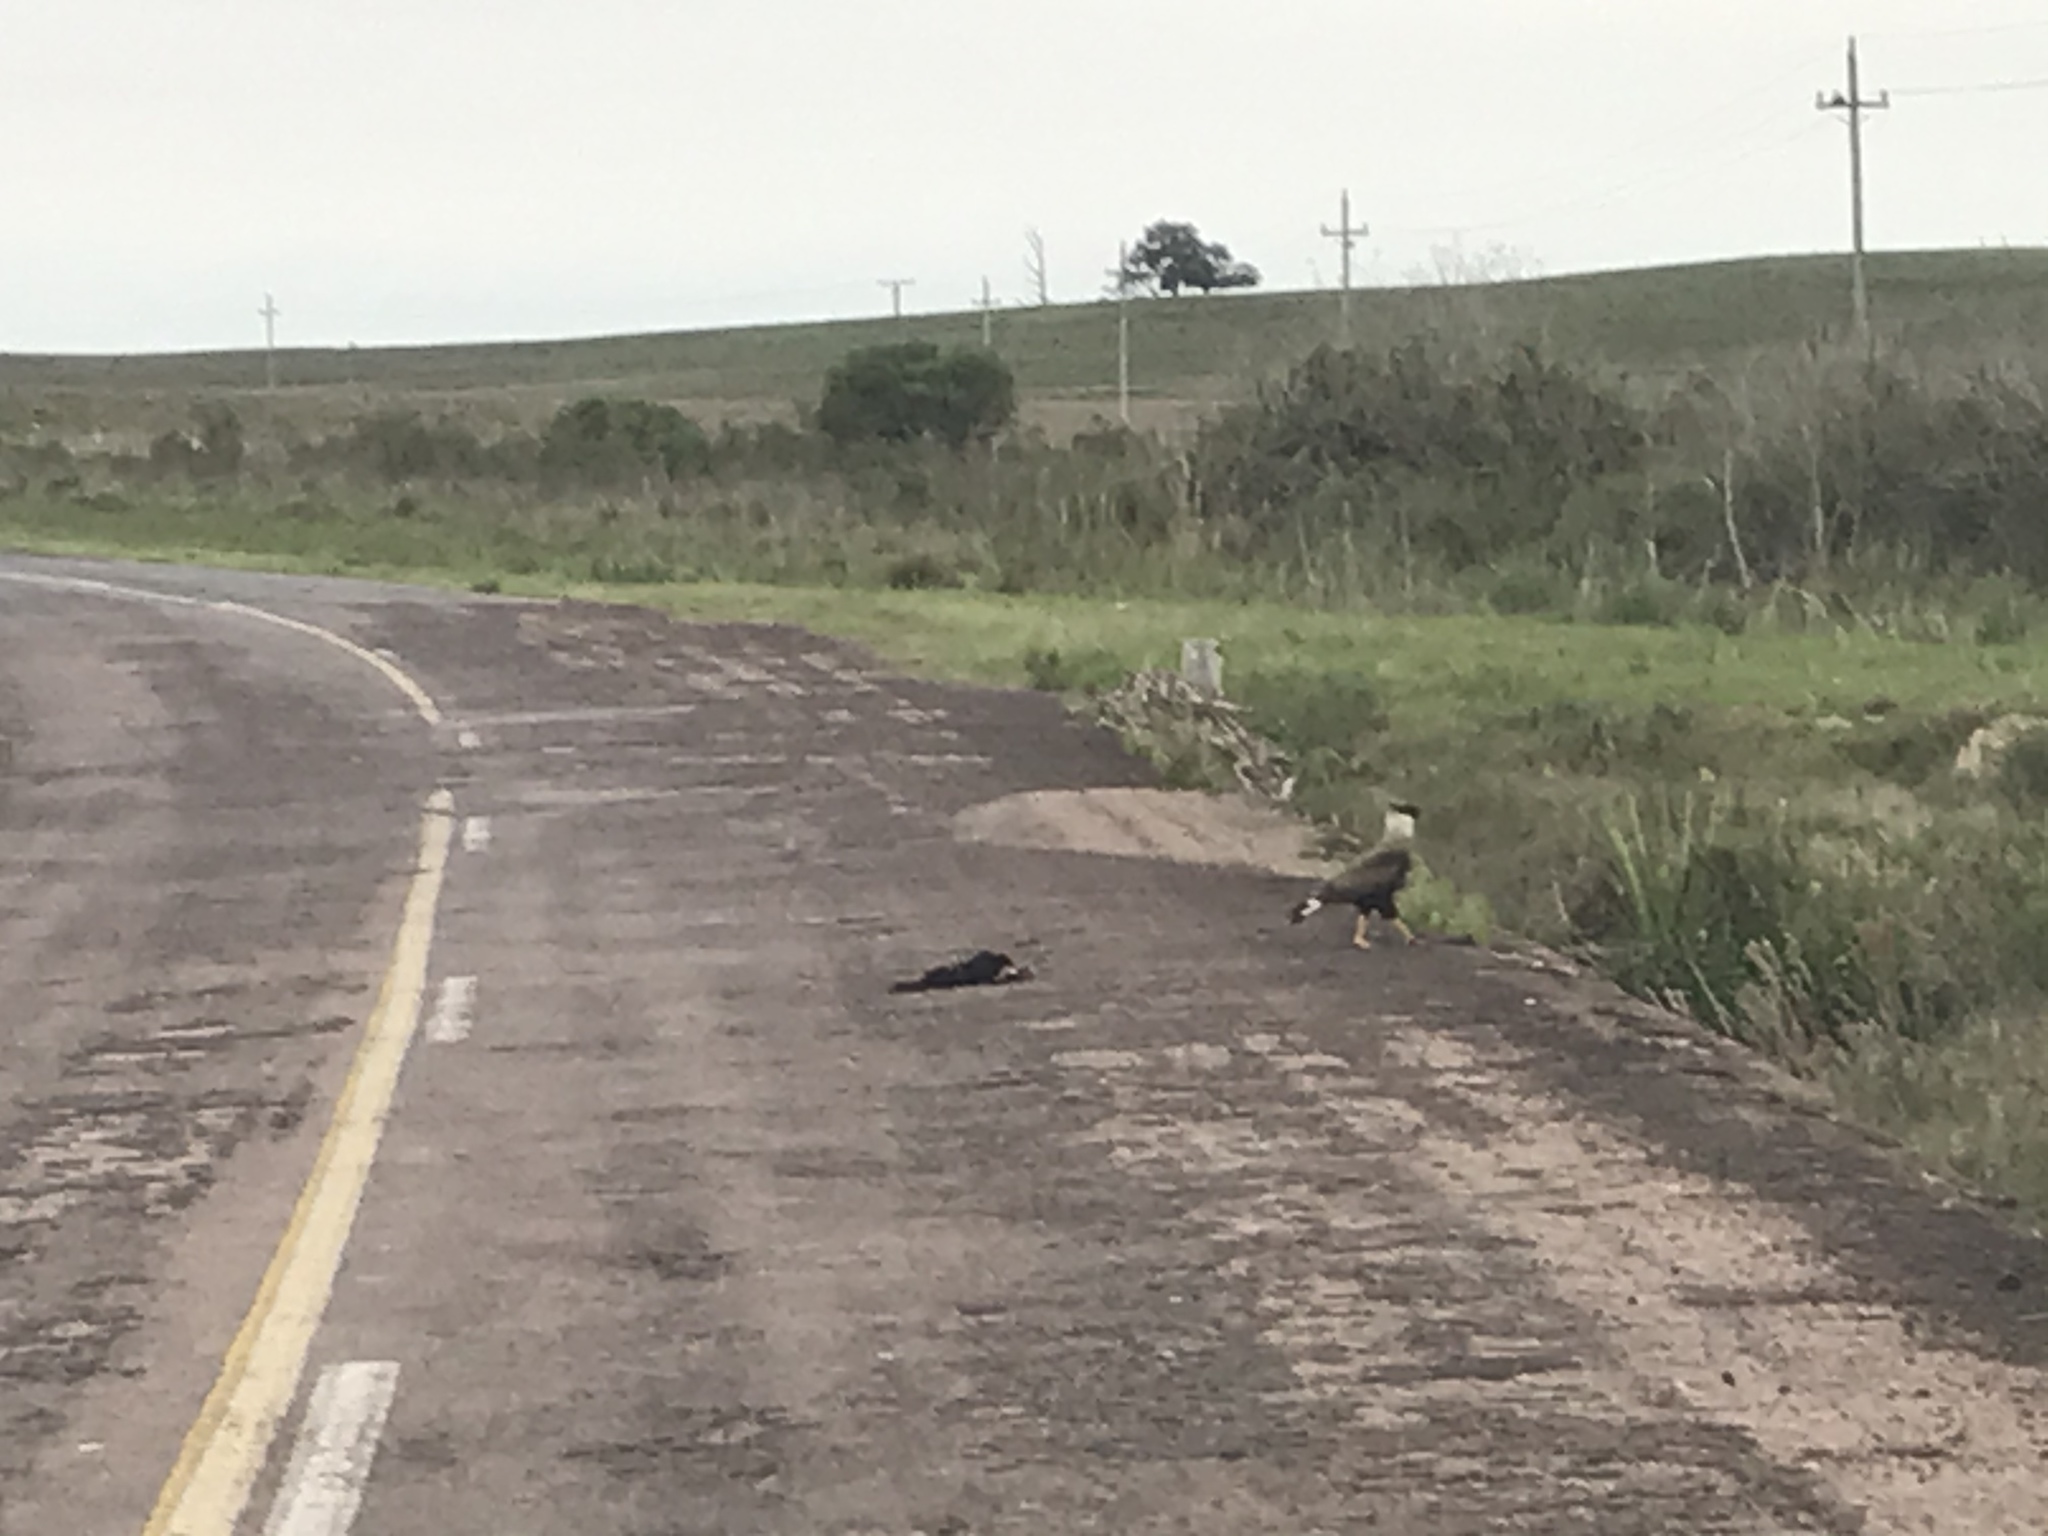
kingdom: Animalia
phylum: Chordata
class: Aves
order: Falconiformes
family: Falconidae
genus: Caracara
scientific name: Caracara plancus
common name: Southern caracara
